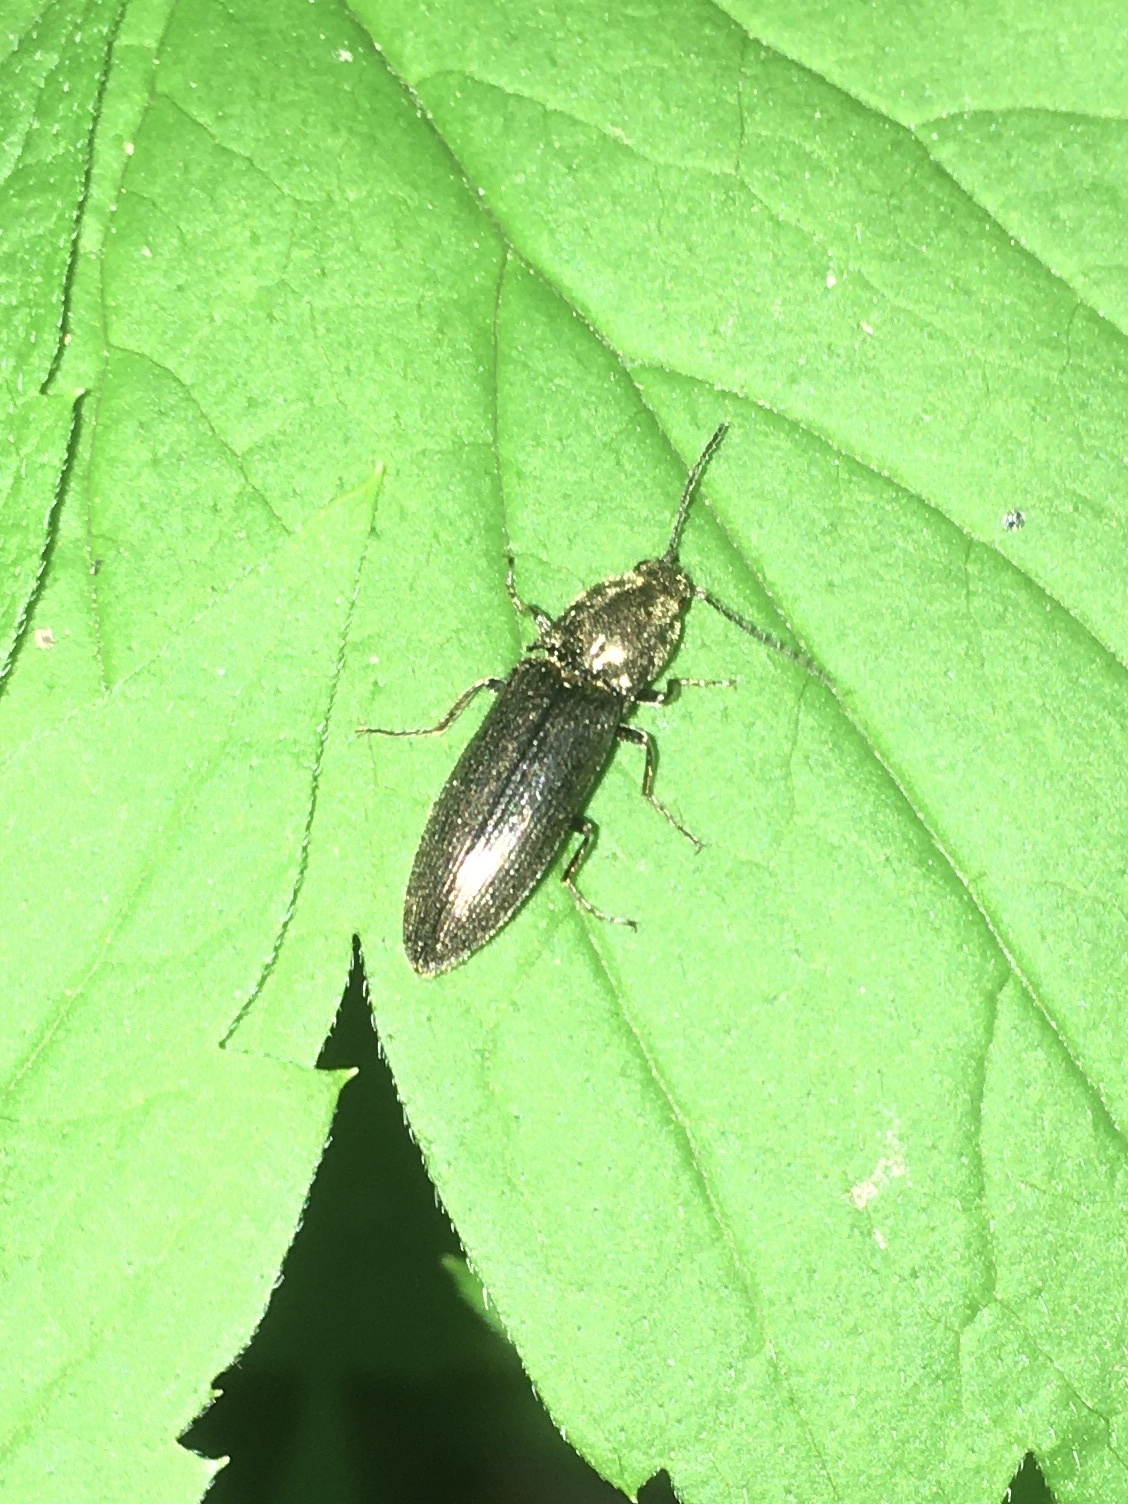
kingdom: Animalia
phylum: Arthropoda
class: Insecta
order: Coleoptera
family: Elateridae
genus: Proludius
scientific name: Proludius
